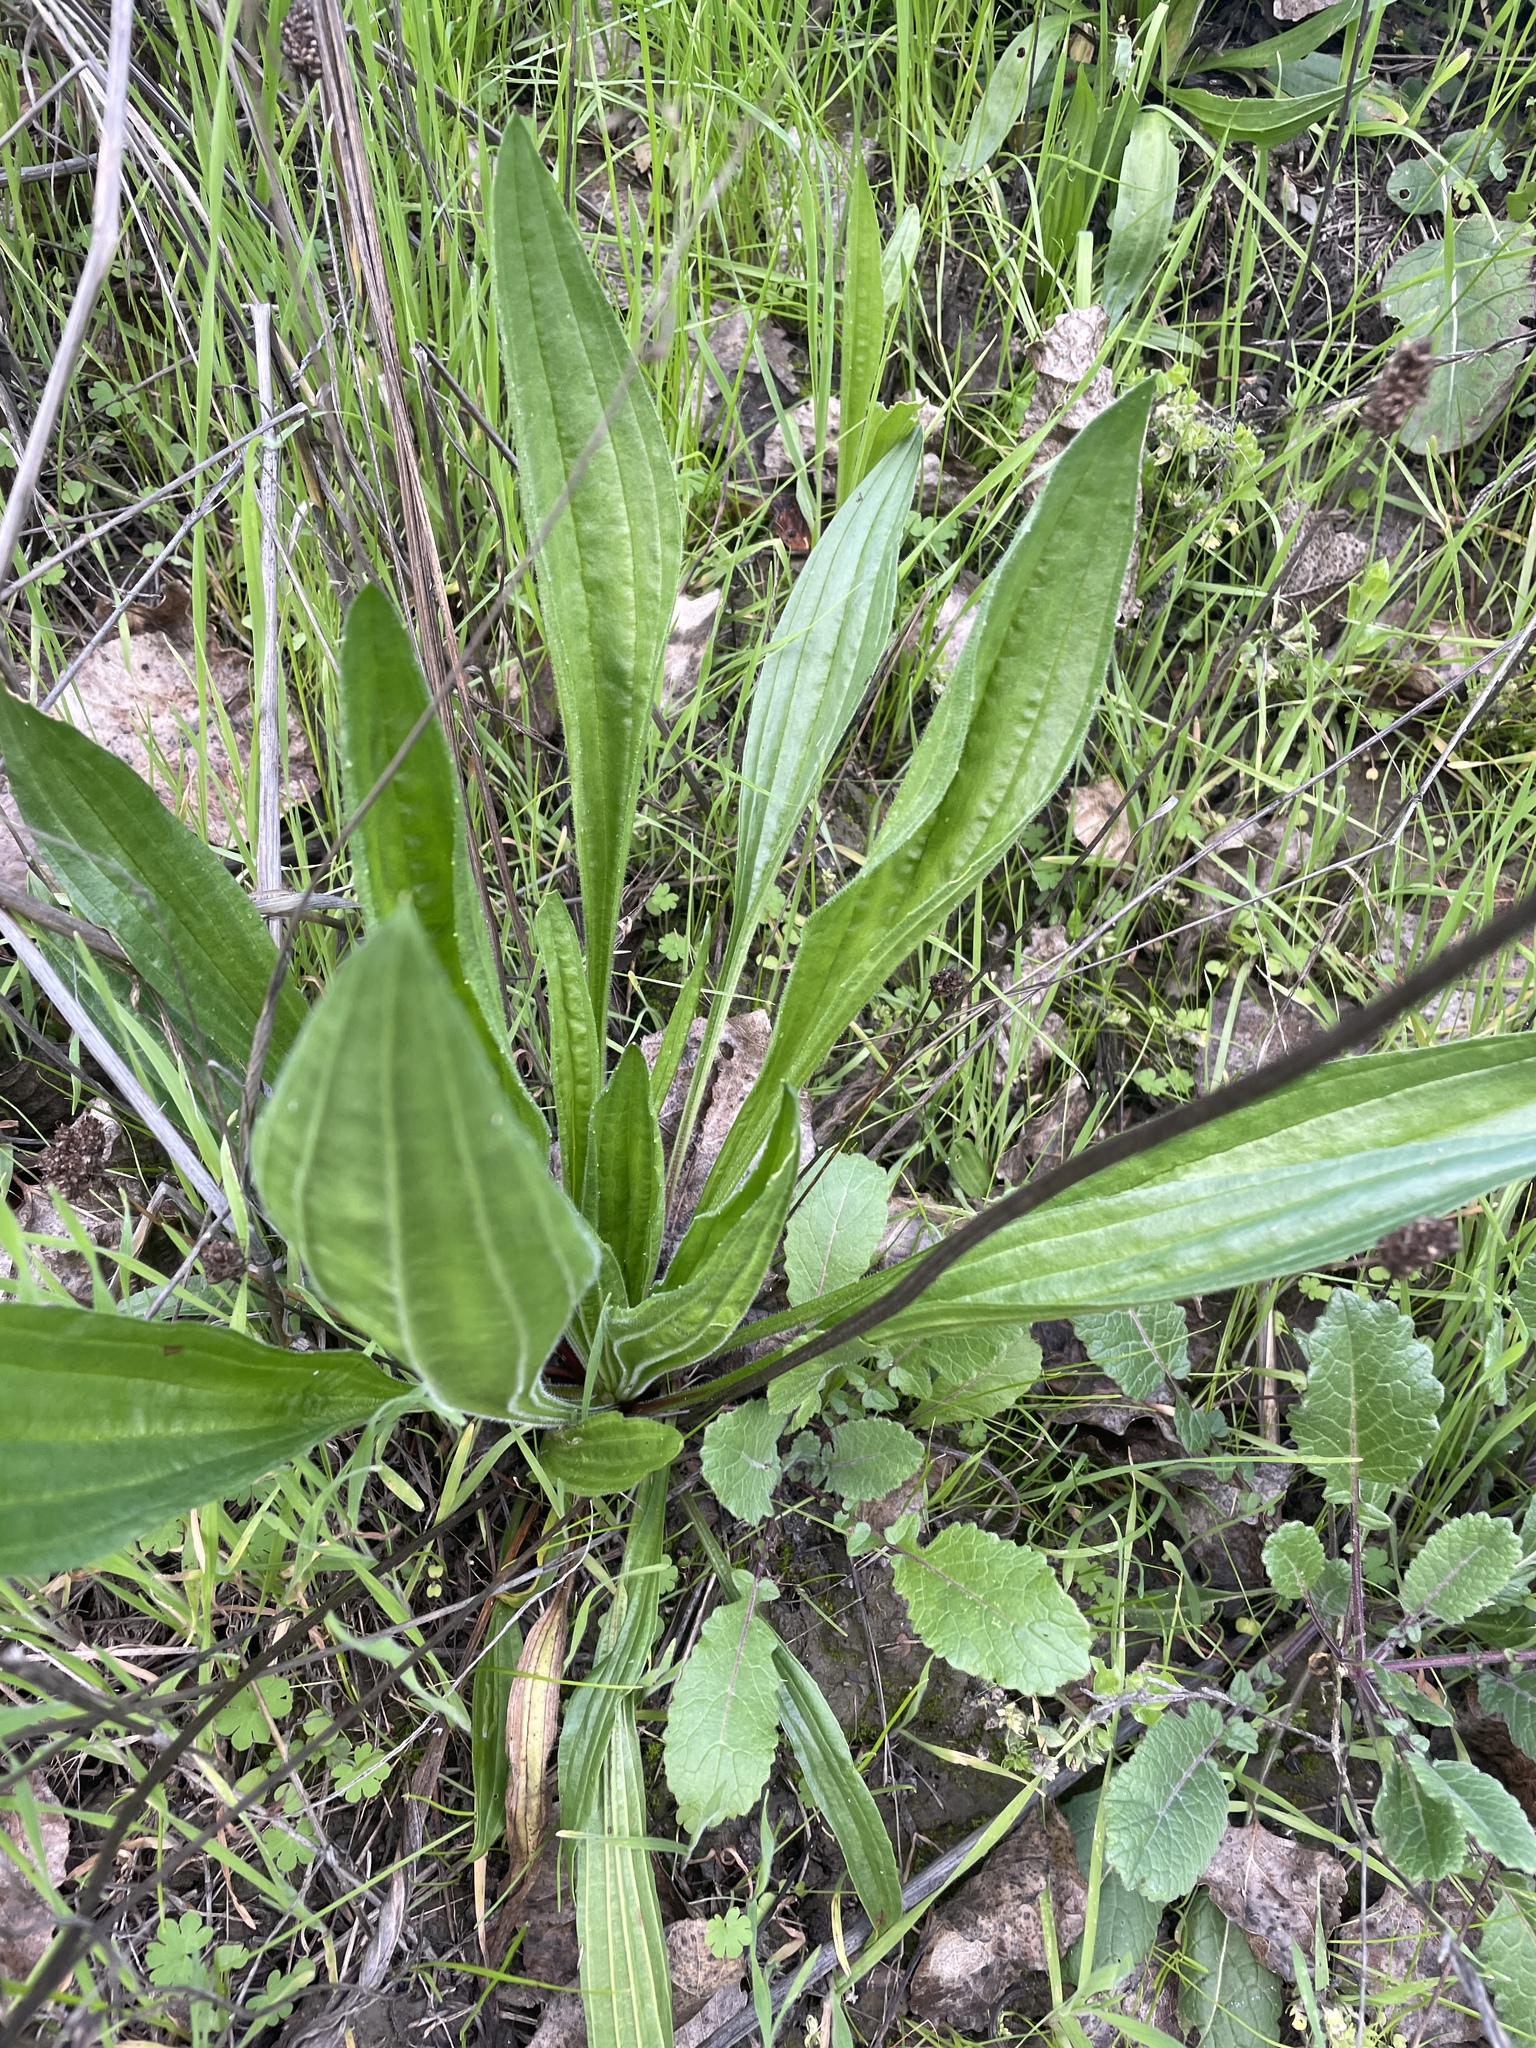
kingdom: Plantae
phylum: Tracheophyta
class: Magnoliopsida
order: Lamiales
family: Plantaginaceae
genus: Plantago
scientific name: Plantago lanceolata
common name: Ribwort plantain
